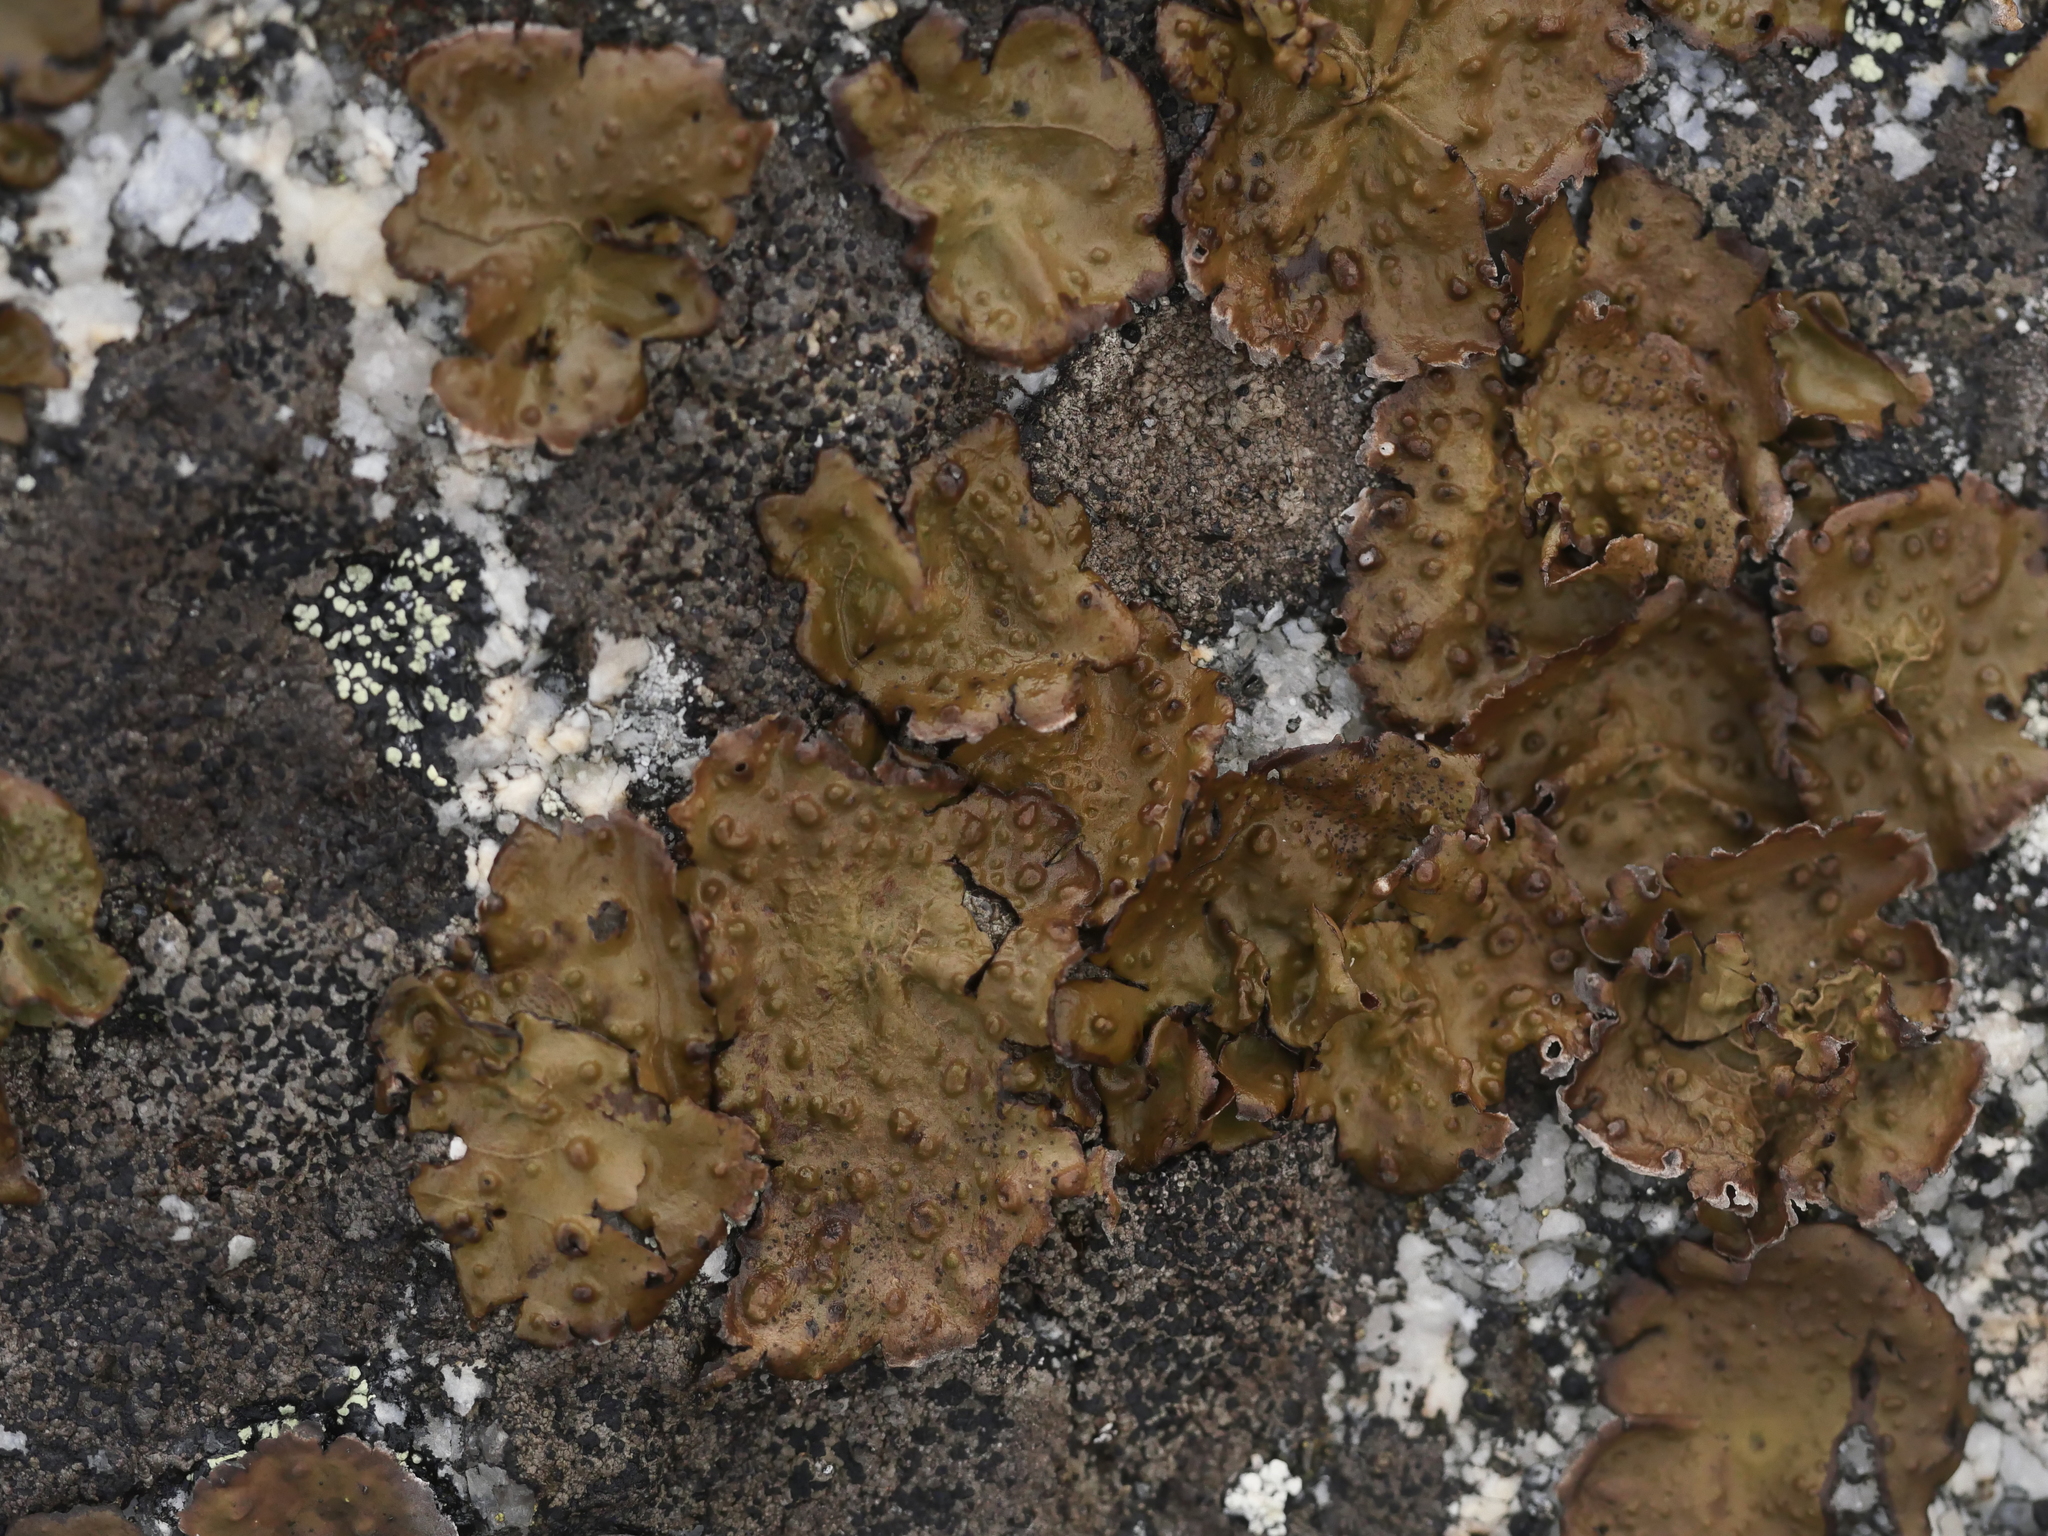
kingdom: Fungi
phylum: Ascomycota
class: Lecanoromycetes
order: Umbilicariales
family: Umbilicariaceae
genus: Lasallia
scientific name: Lasallia papulosa
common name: Common toadskin lichen
